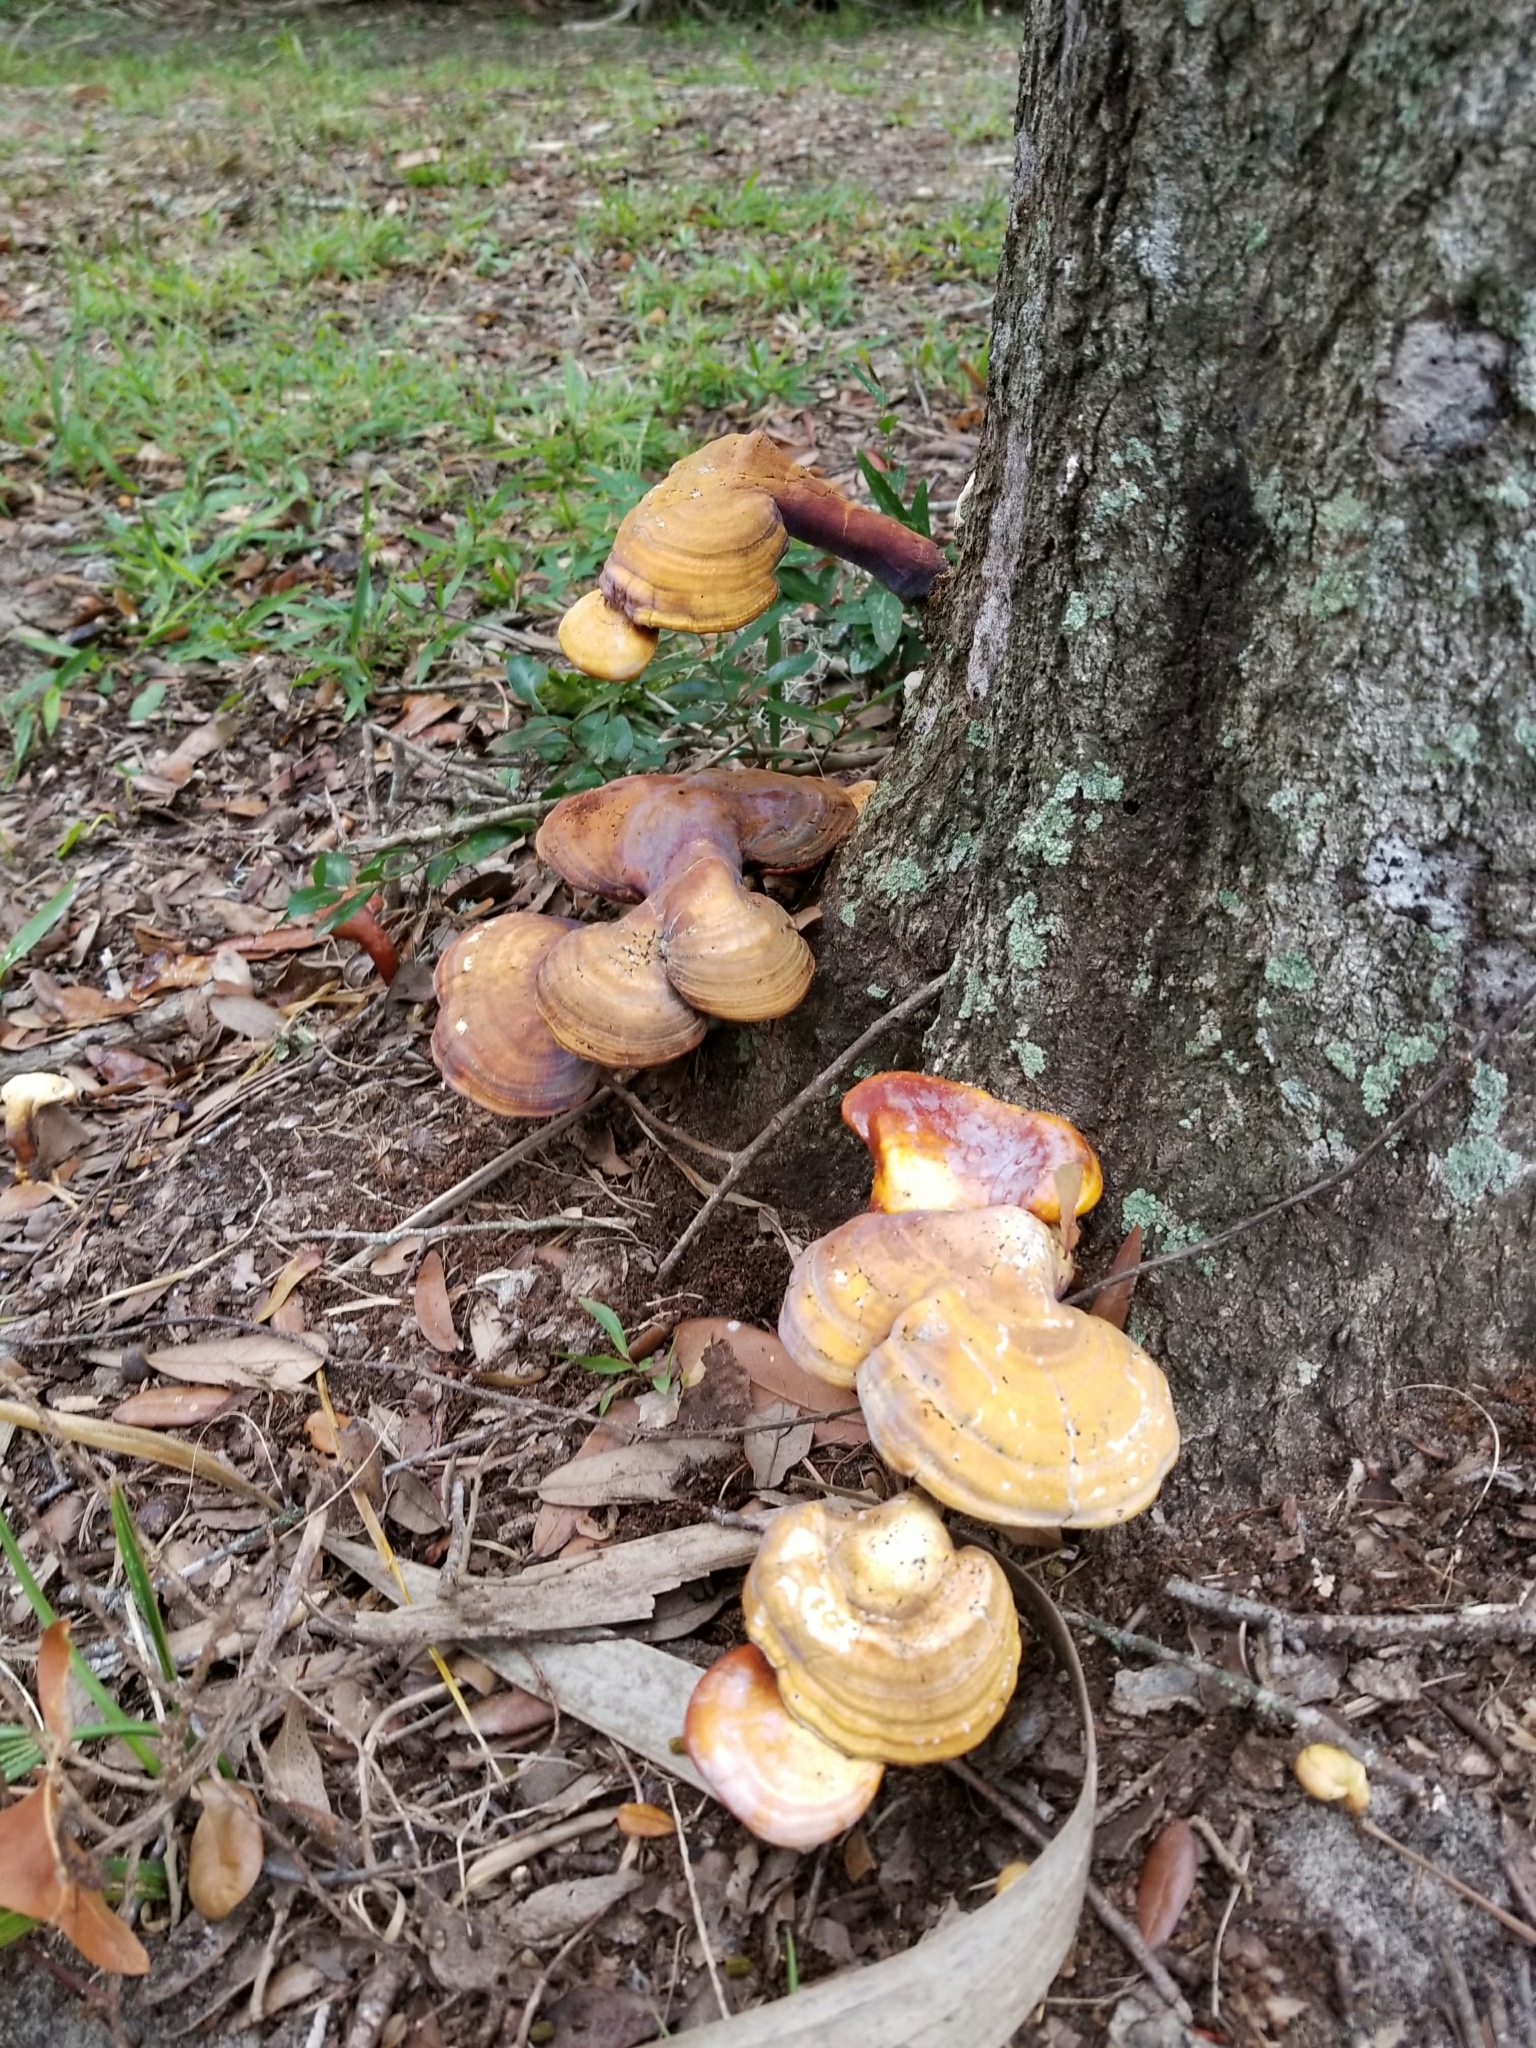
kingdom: Fungi
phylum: Basidiomycota
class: Agaricomycetes
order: Polyporales
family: Polyporaceae
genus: Ganoderma
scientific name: Ganoderma curtisii
